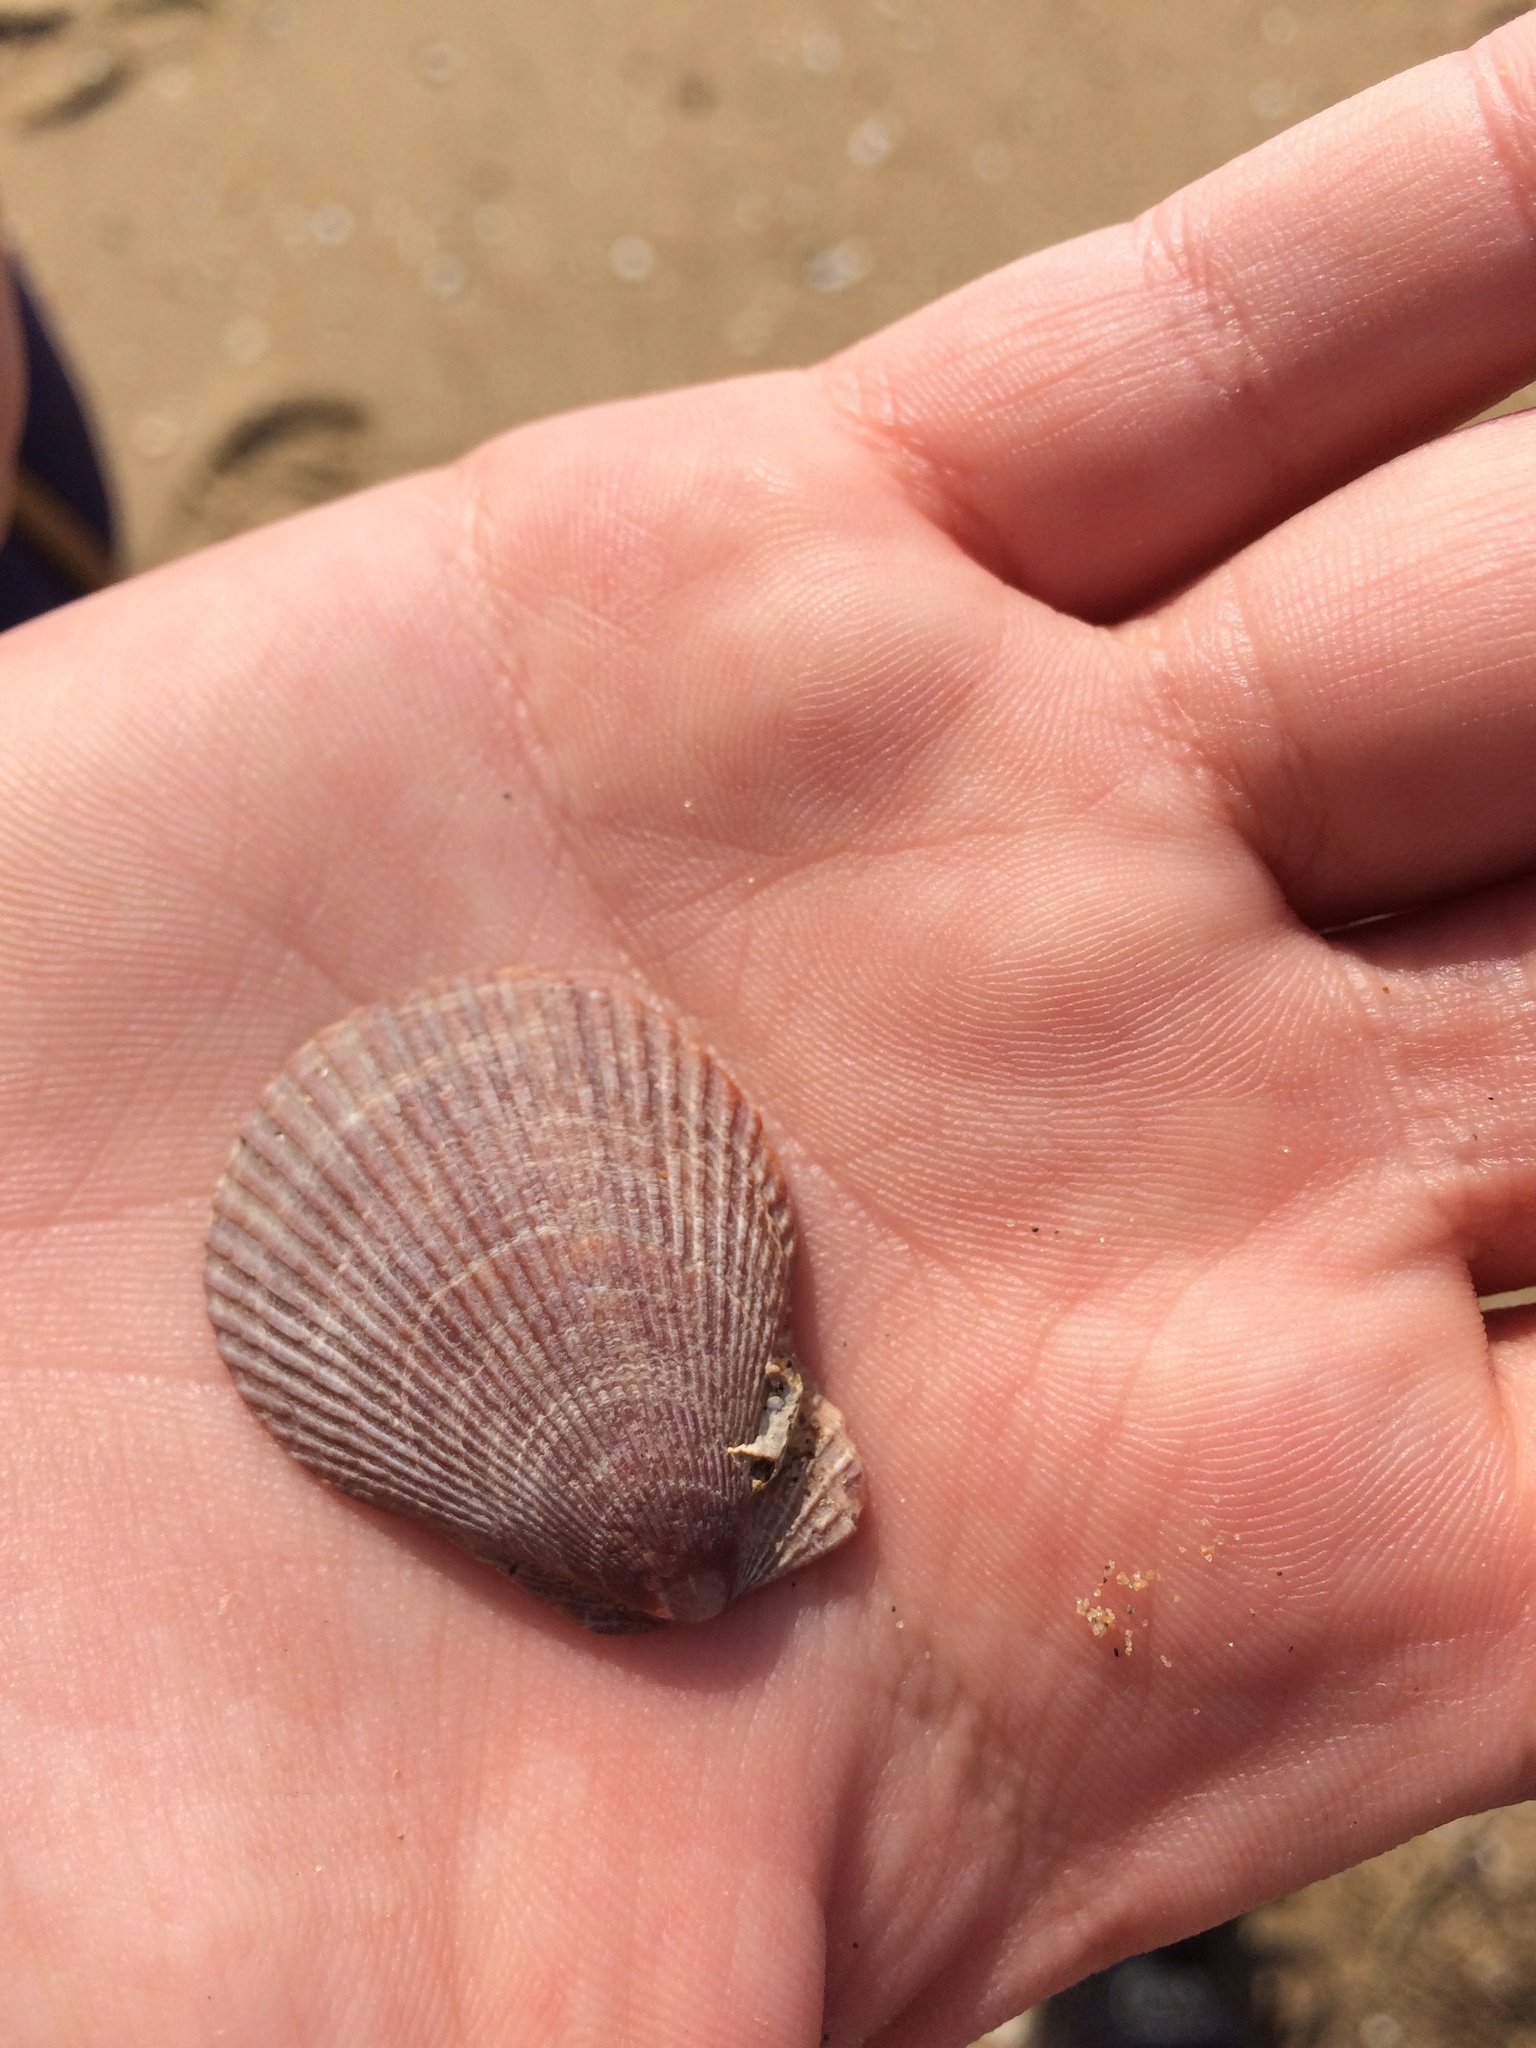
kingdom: Animalia
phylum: Mollusca
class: Bivalvia
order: Pectinida
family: Pectinidae
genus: Mimachlamys
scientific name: Mimachlamys varia
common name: Variegated scallop
